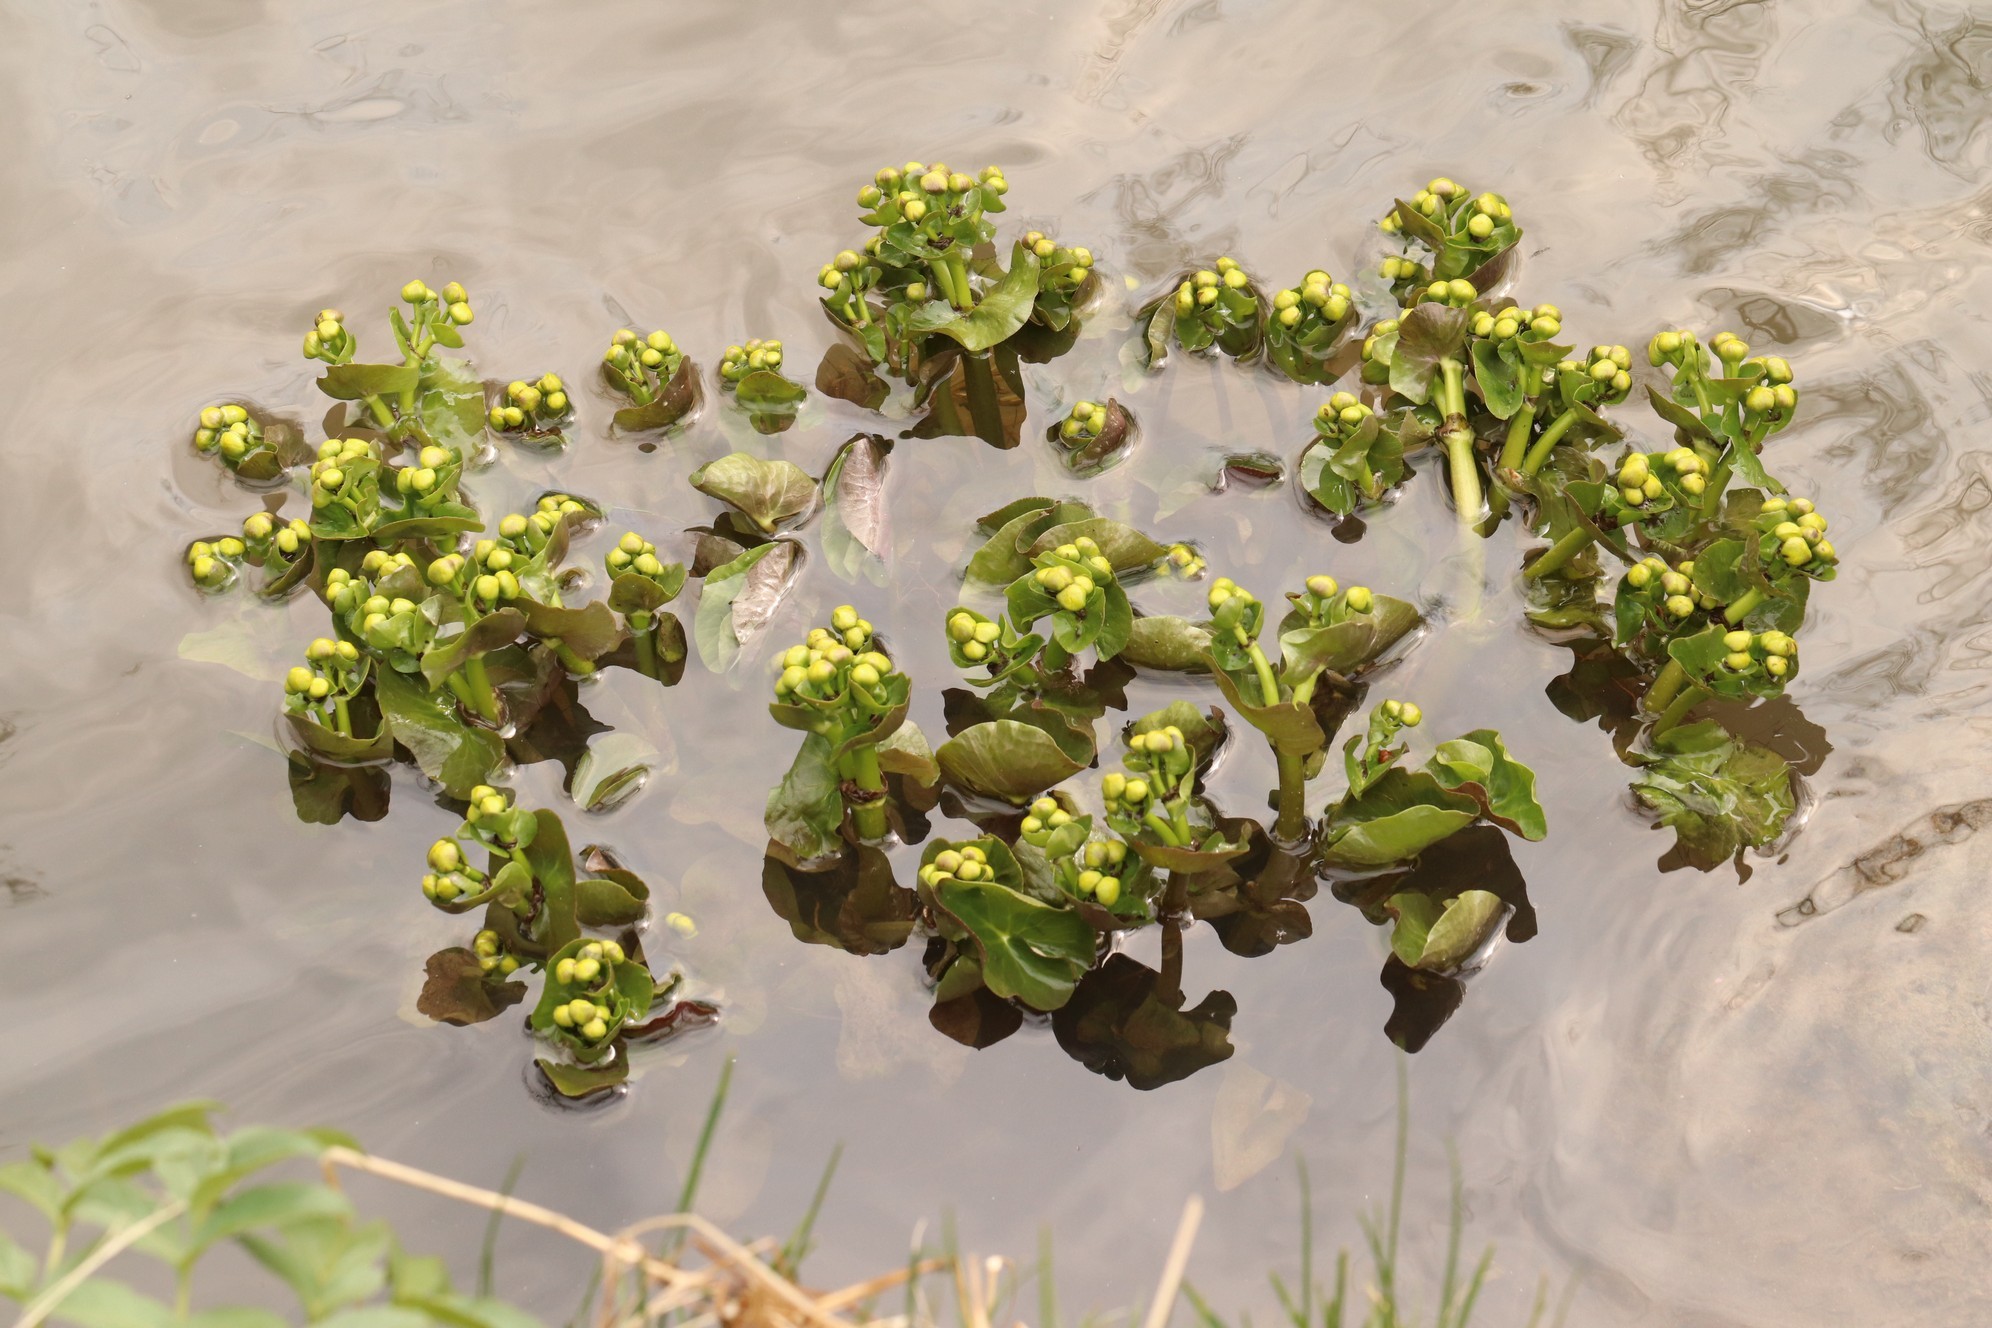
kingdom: Plantae
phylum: Tracheophyta
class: Magnoliopsida
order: Ranunculales
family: Ranunculaceae
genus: Caltha
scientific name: Caltha palustris
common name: Marsh marigold
